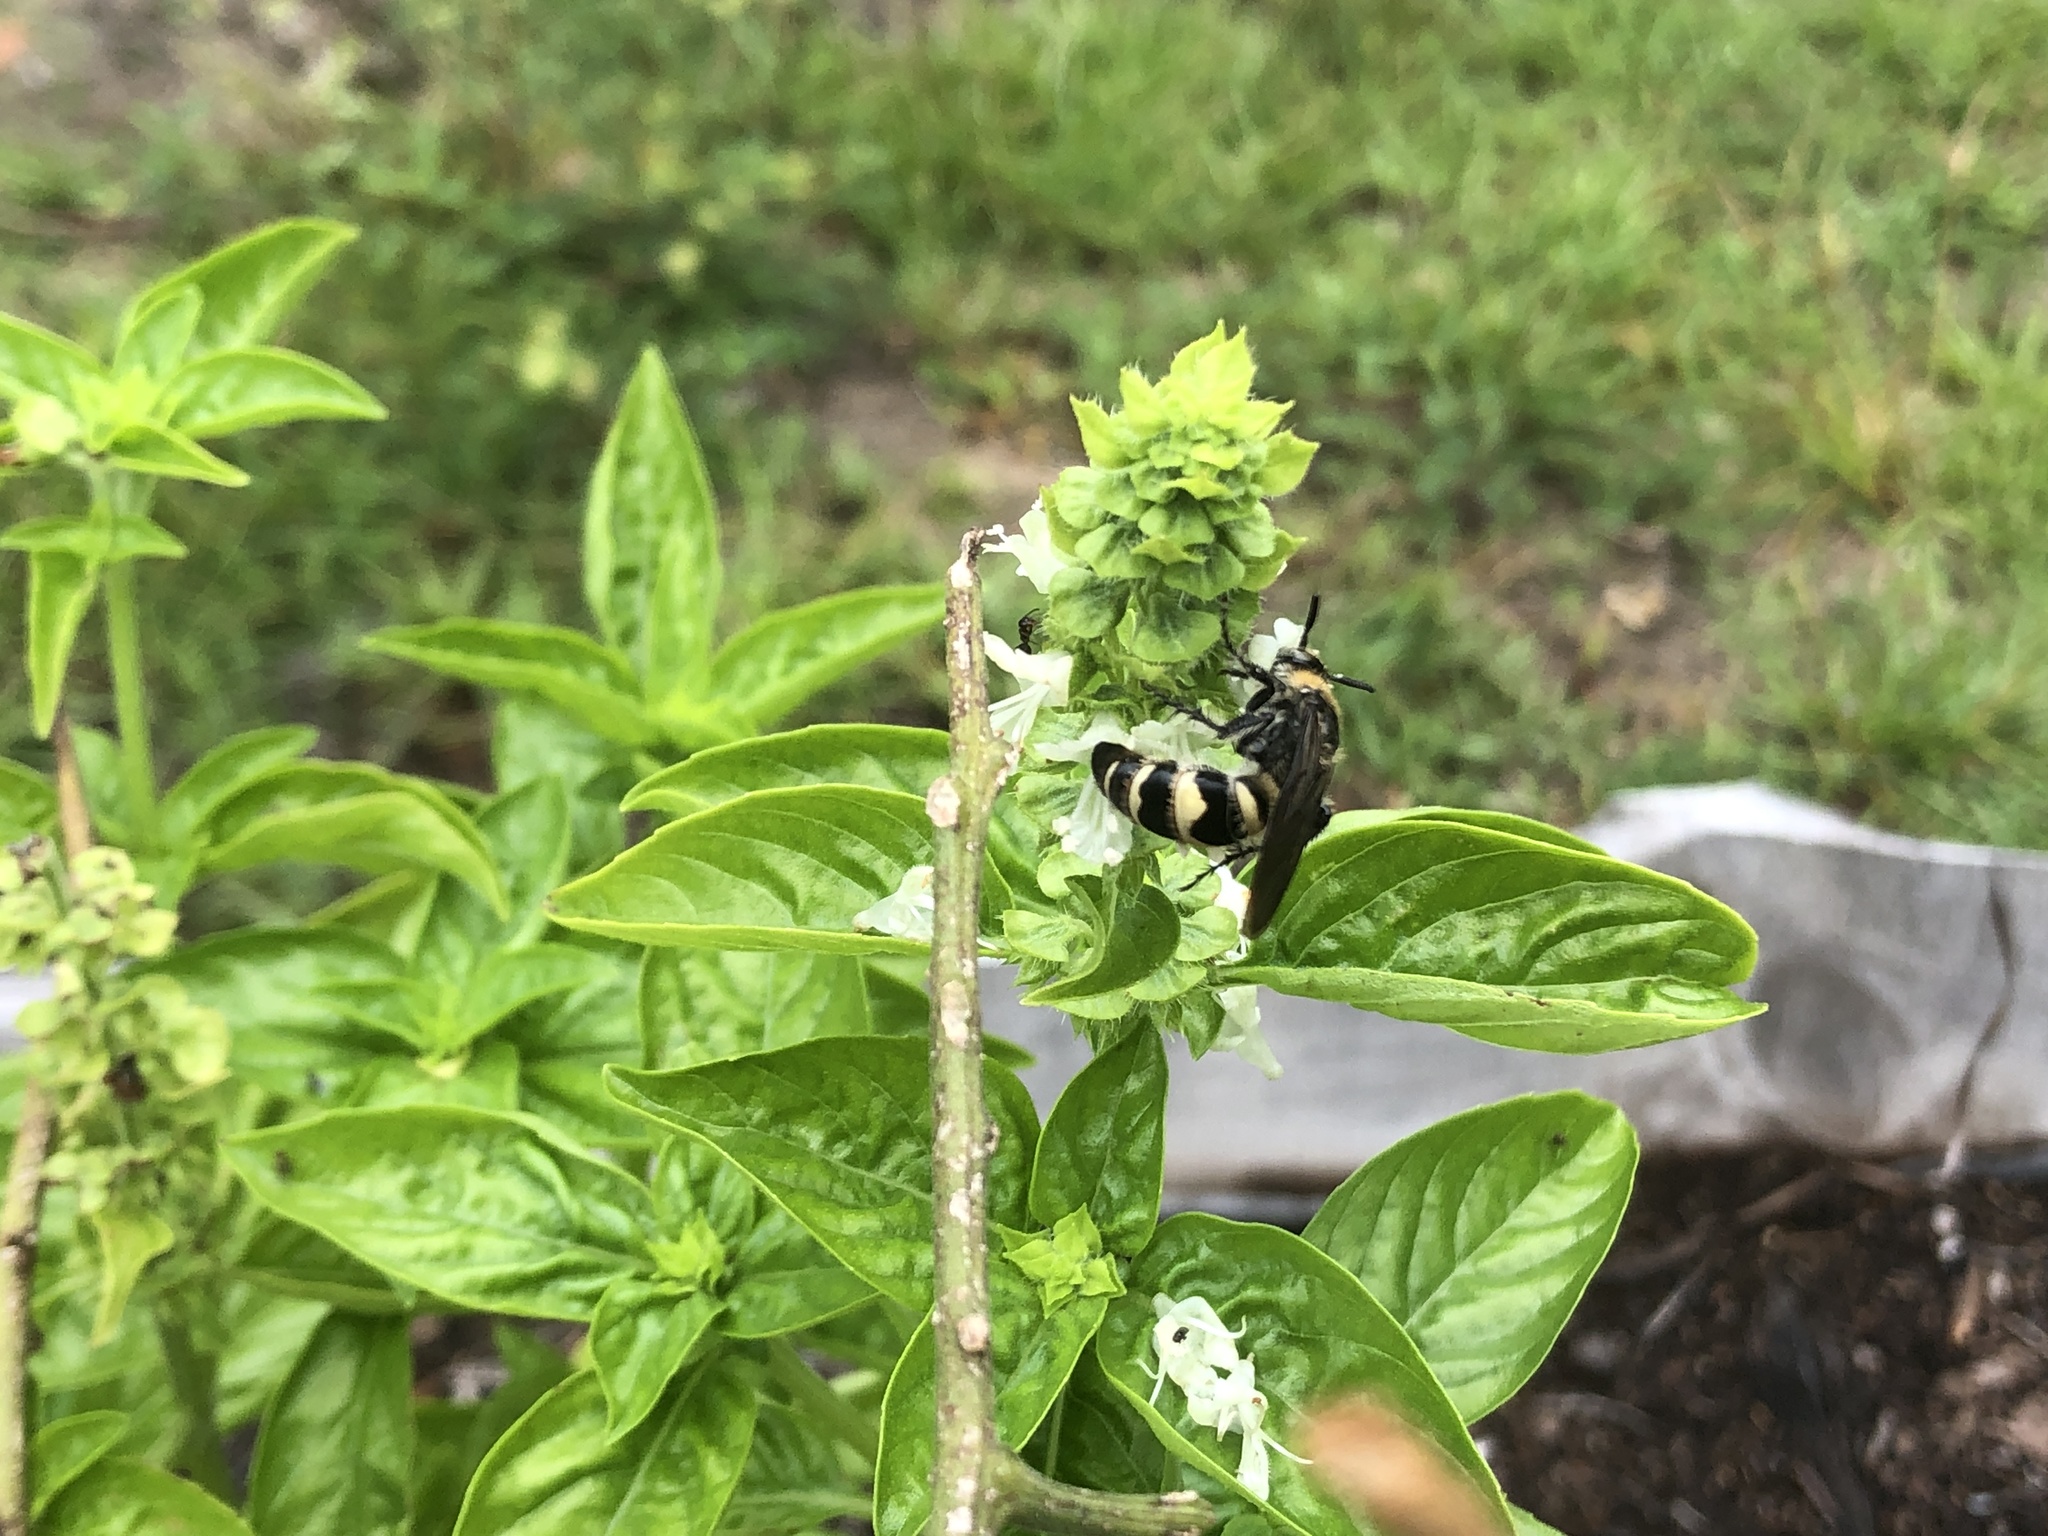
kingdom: Animalia
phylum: Arthropoda
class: Insecta
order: Hymenoptera
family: Scoliidae
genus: Dielis
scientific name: Dielis
